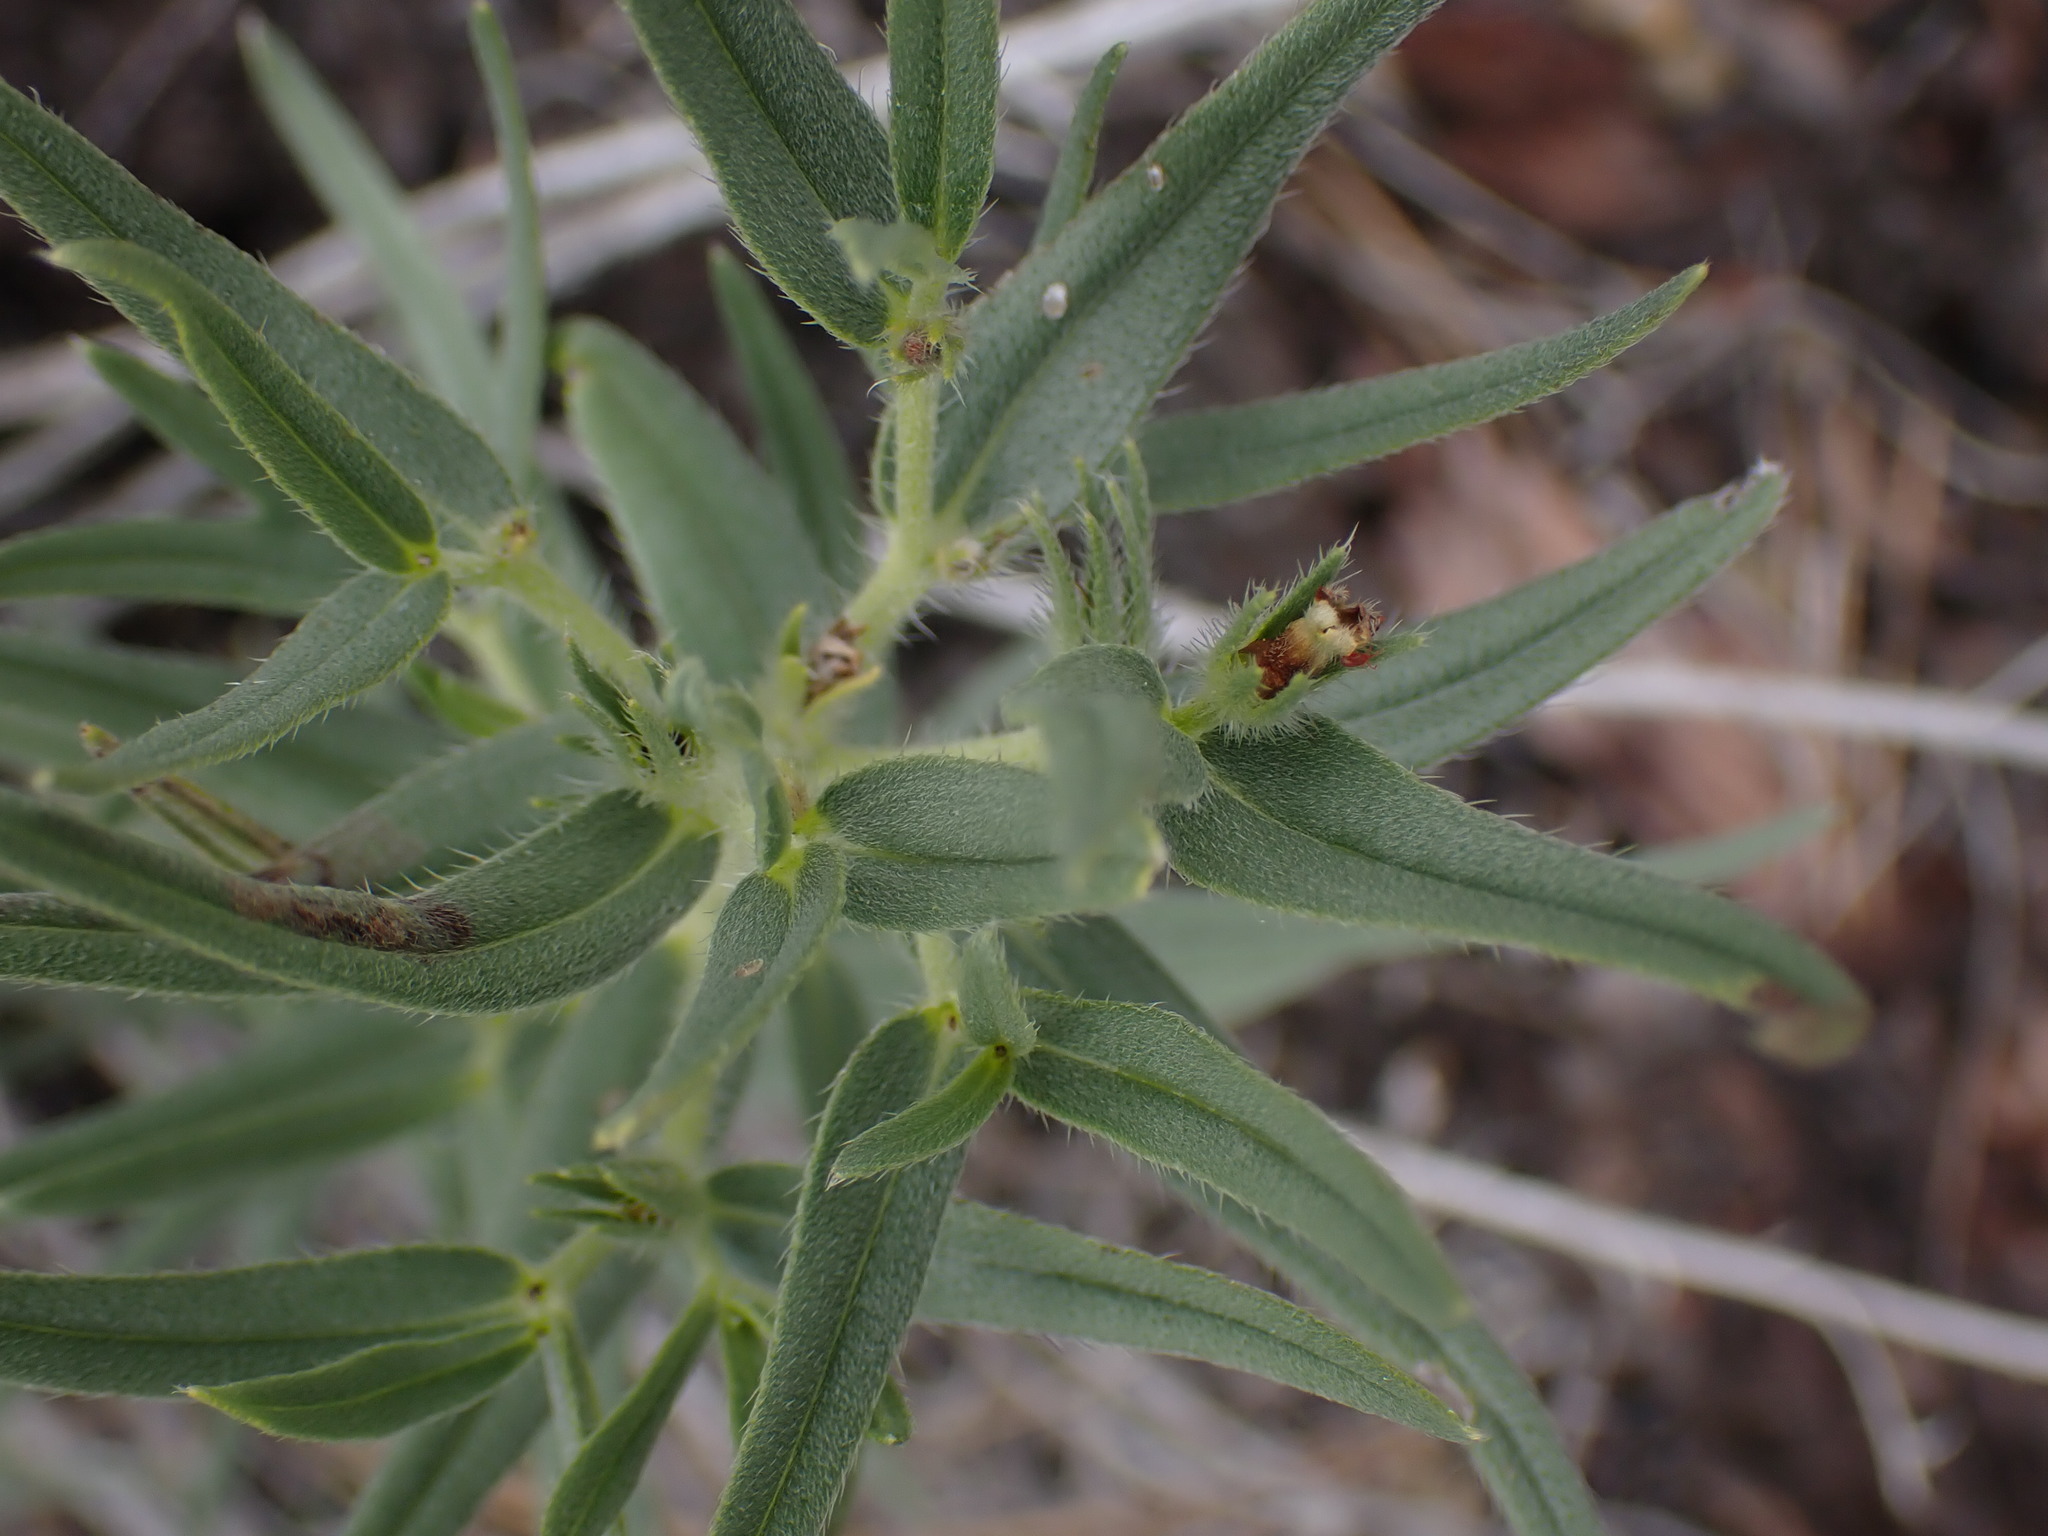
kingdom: Plantae
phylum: Tracheophyta
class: Magnoliopsida
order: Boraginales
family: Boraginaceae
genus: Lithospermum
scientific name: Lithospermum ruderale
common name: Western gromwell
